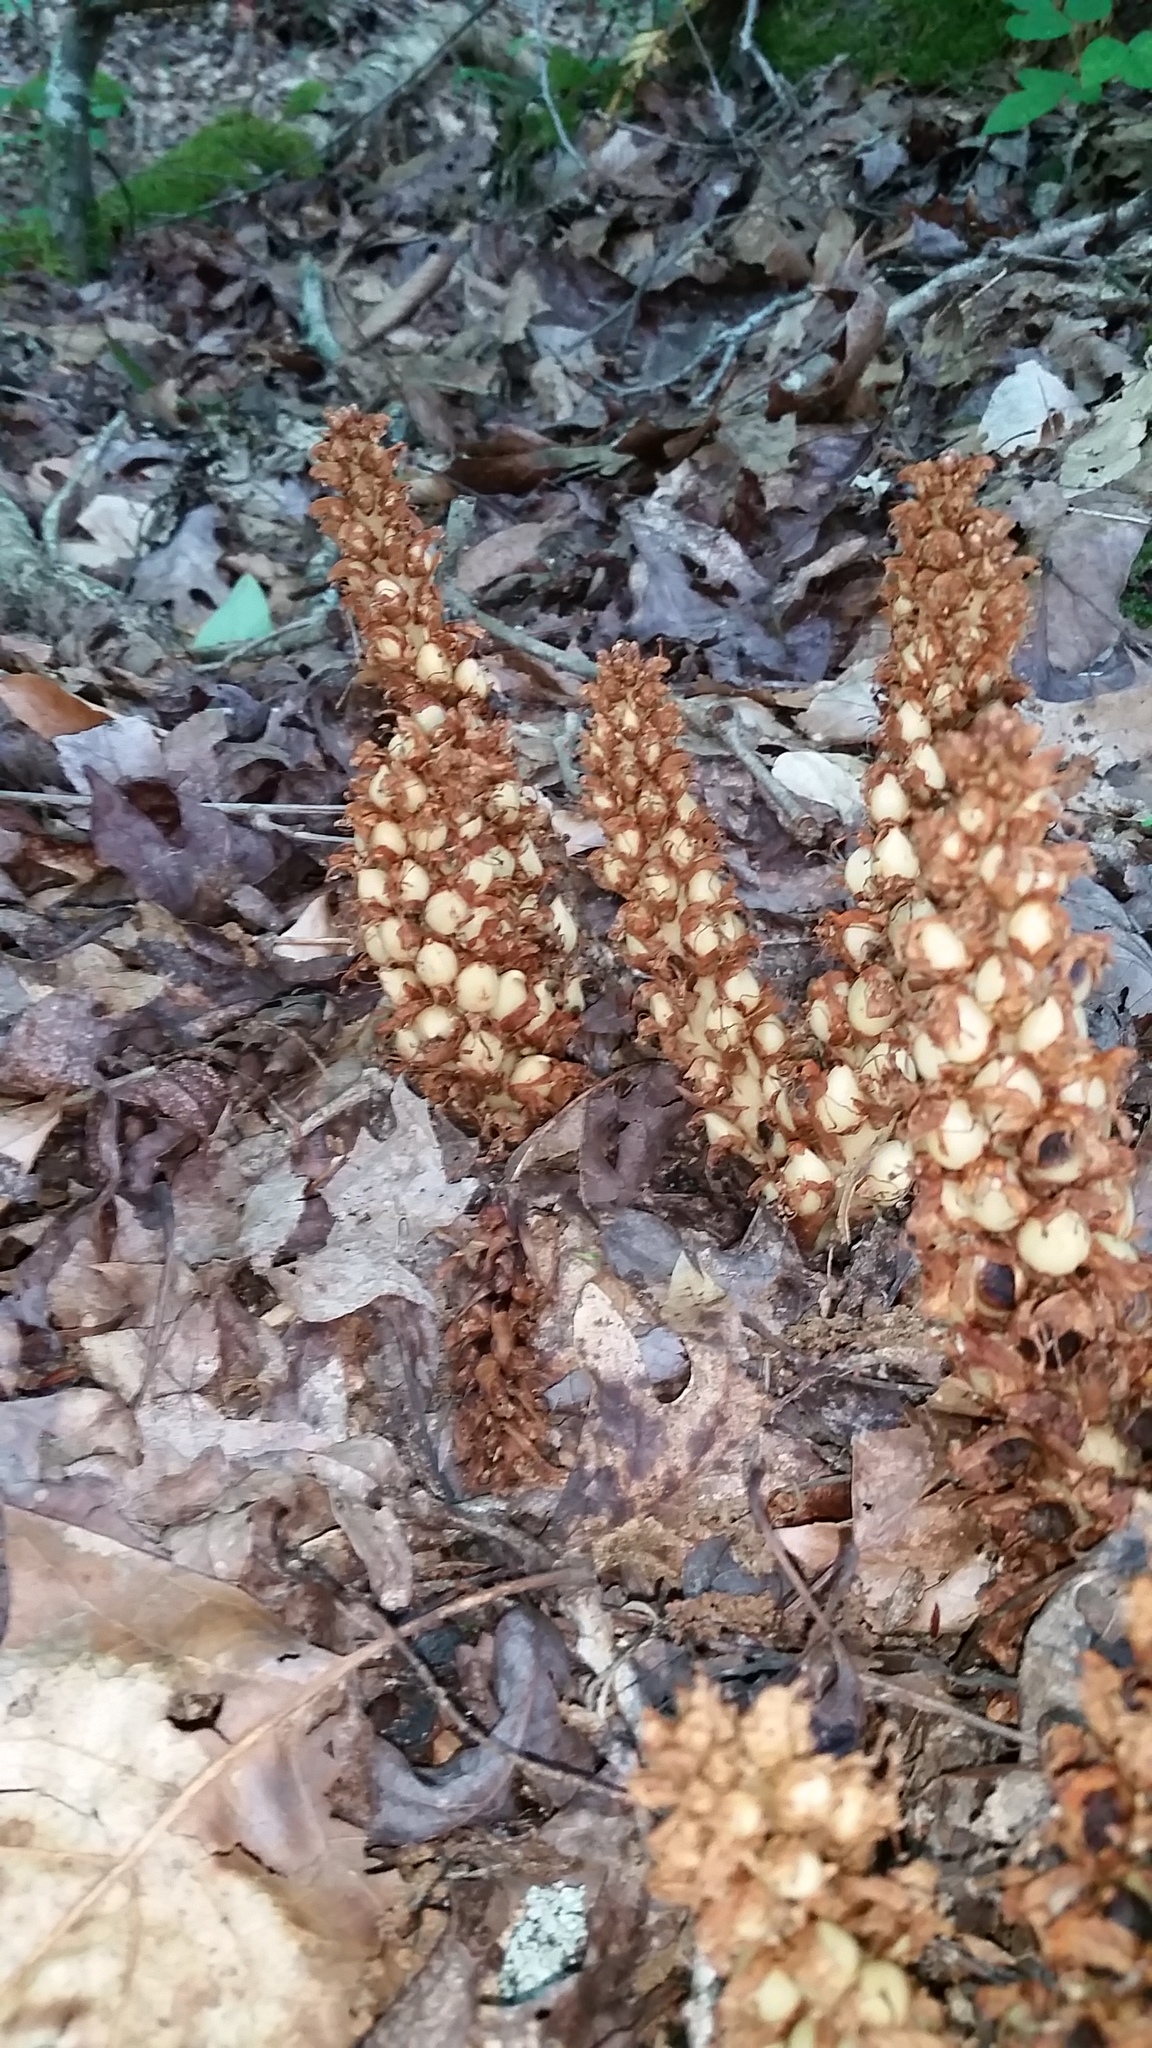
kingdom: Plantae
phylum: Tracheophyta
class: Magnoliopsida
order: Lamiales
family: Orobanchaceae
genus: Conopholis
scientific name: Conopholis americana
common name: American cancer-root
